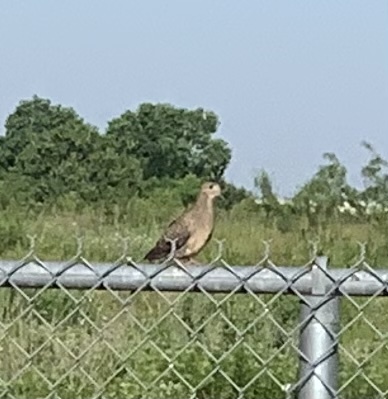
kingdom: Animalia
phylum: Chordata
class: Aves
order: Columbiformes
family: Columbidae
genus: Zenaida
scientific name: Zenaida macroura
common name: Mourning dove
